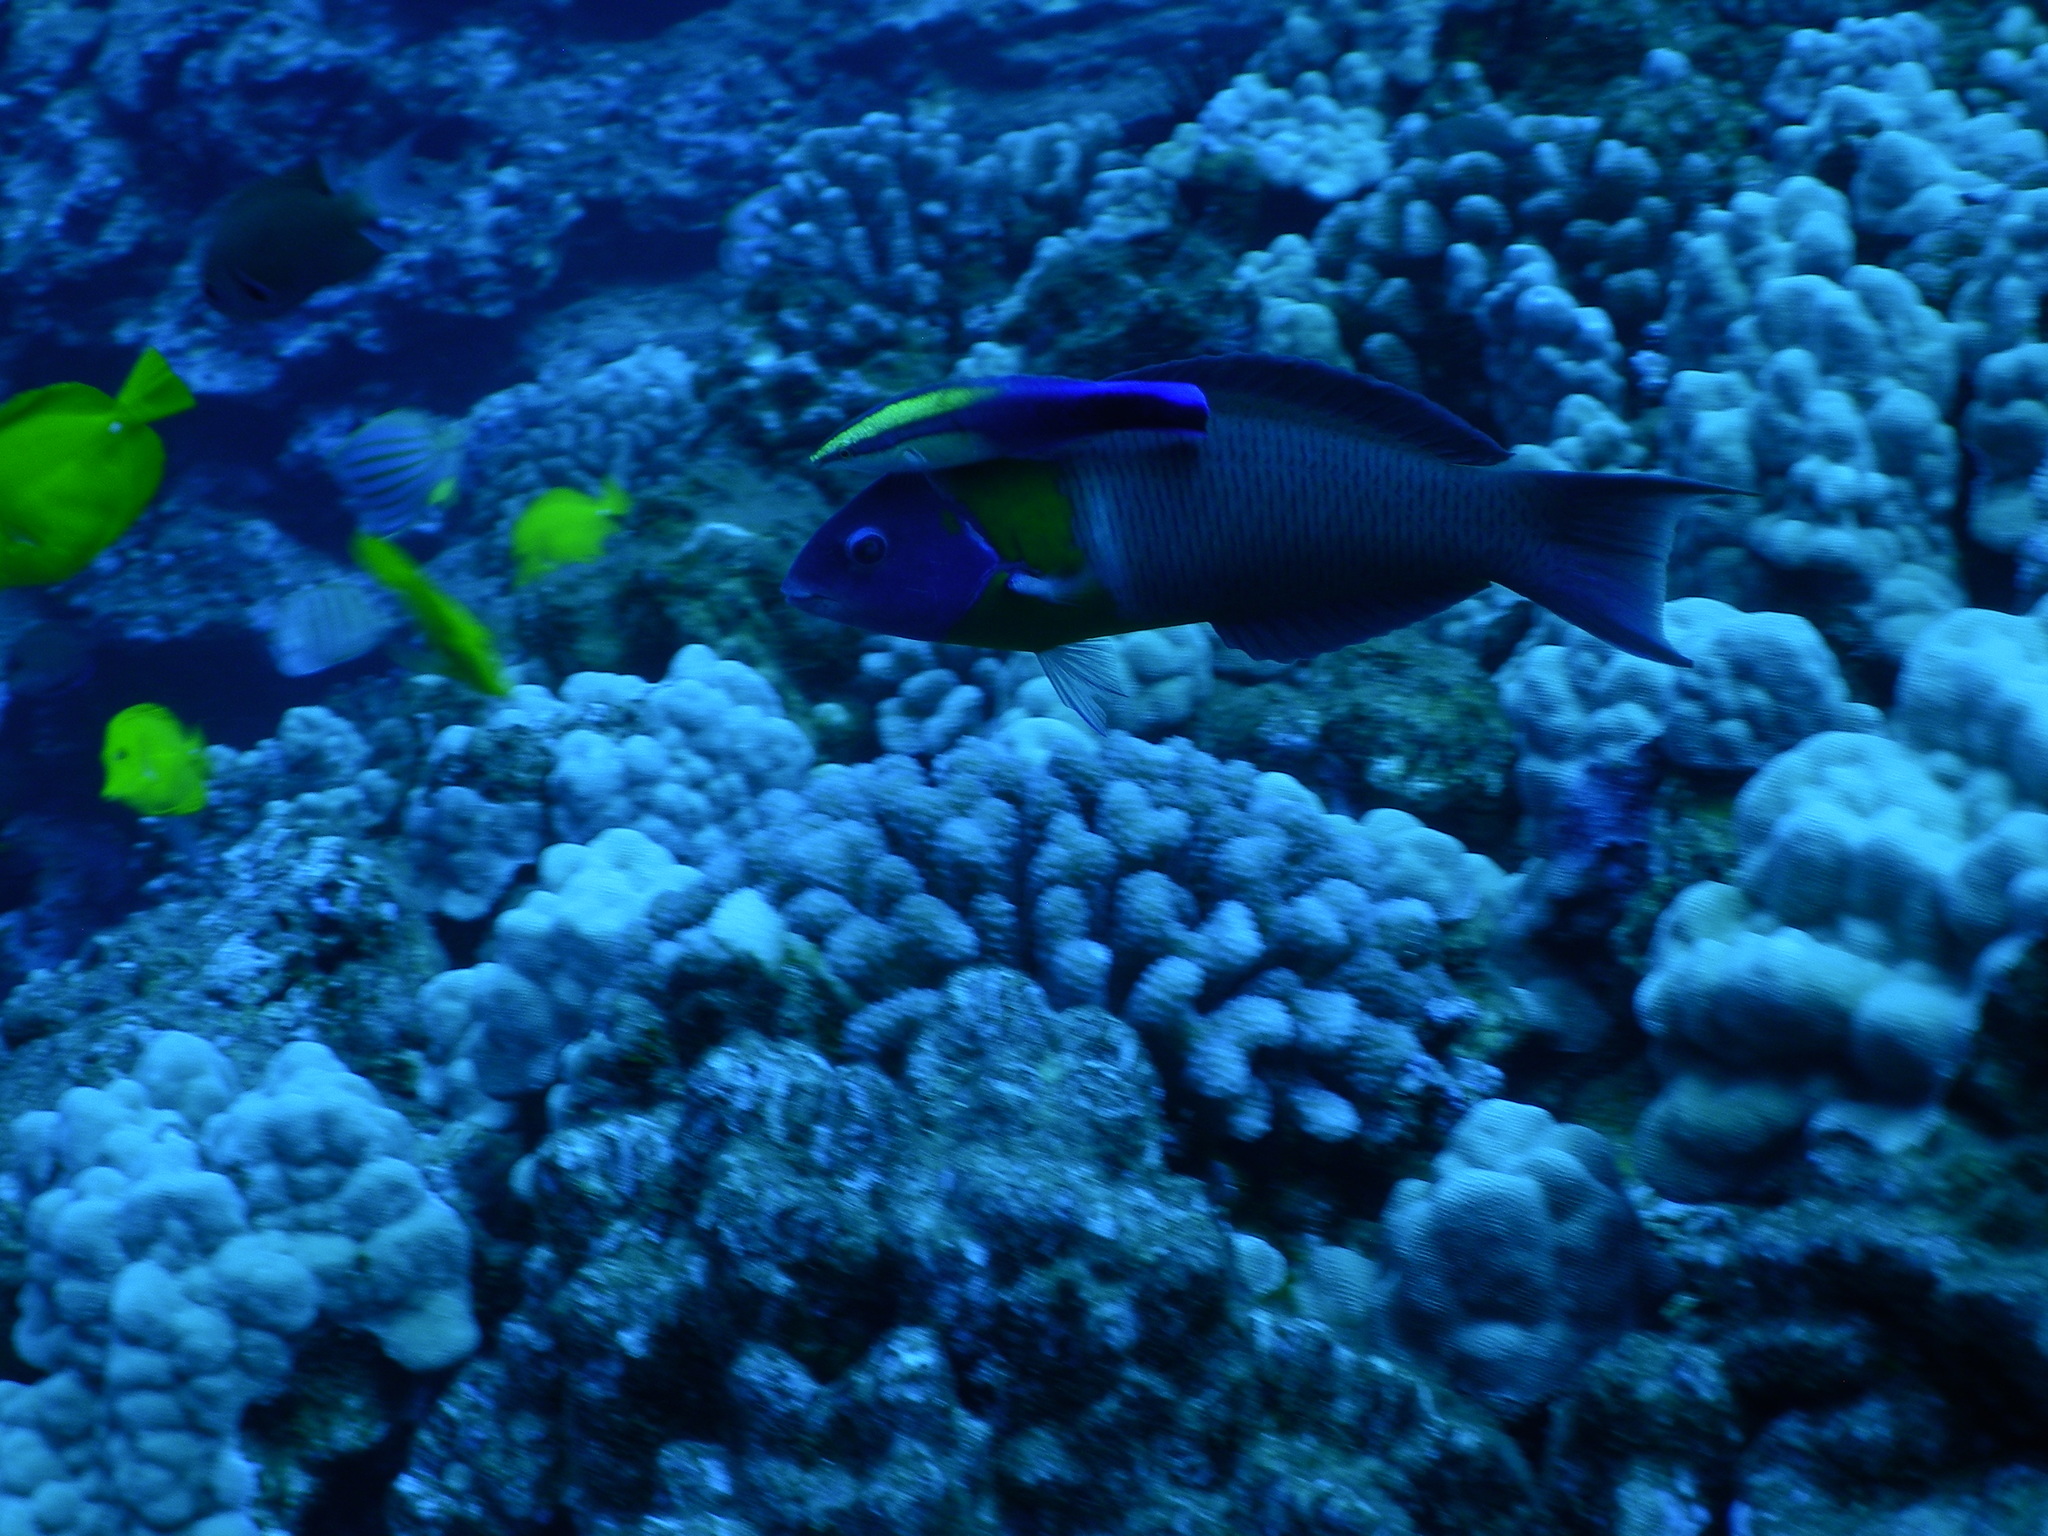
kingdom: Animalia
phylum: Chordata
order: Perciformes
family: Labridae
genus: Thalassoma
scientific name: Thalassoma duperrey
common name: Saddle wrasse
